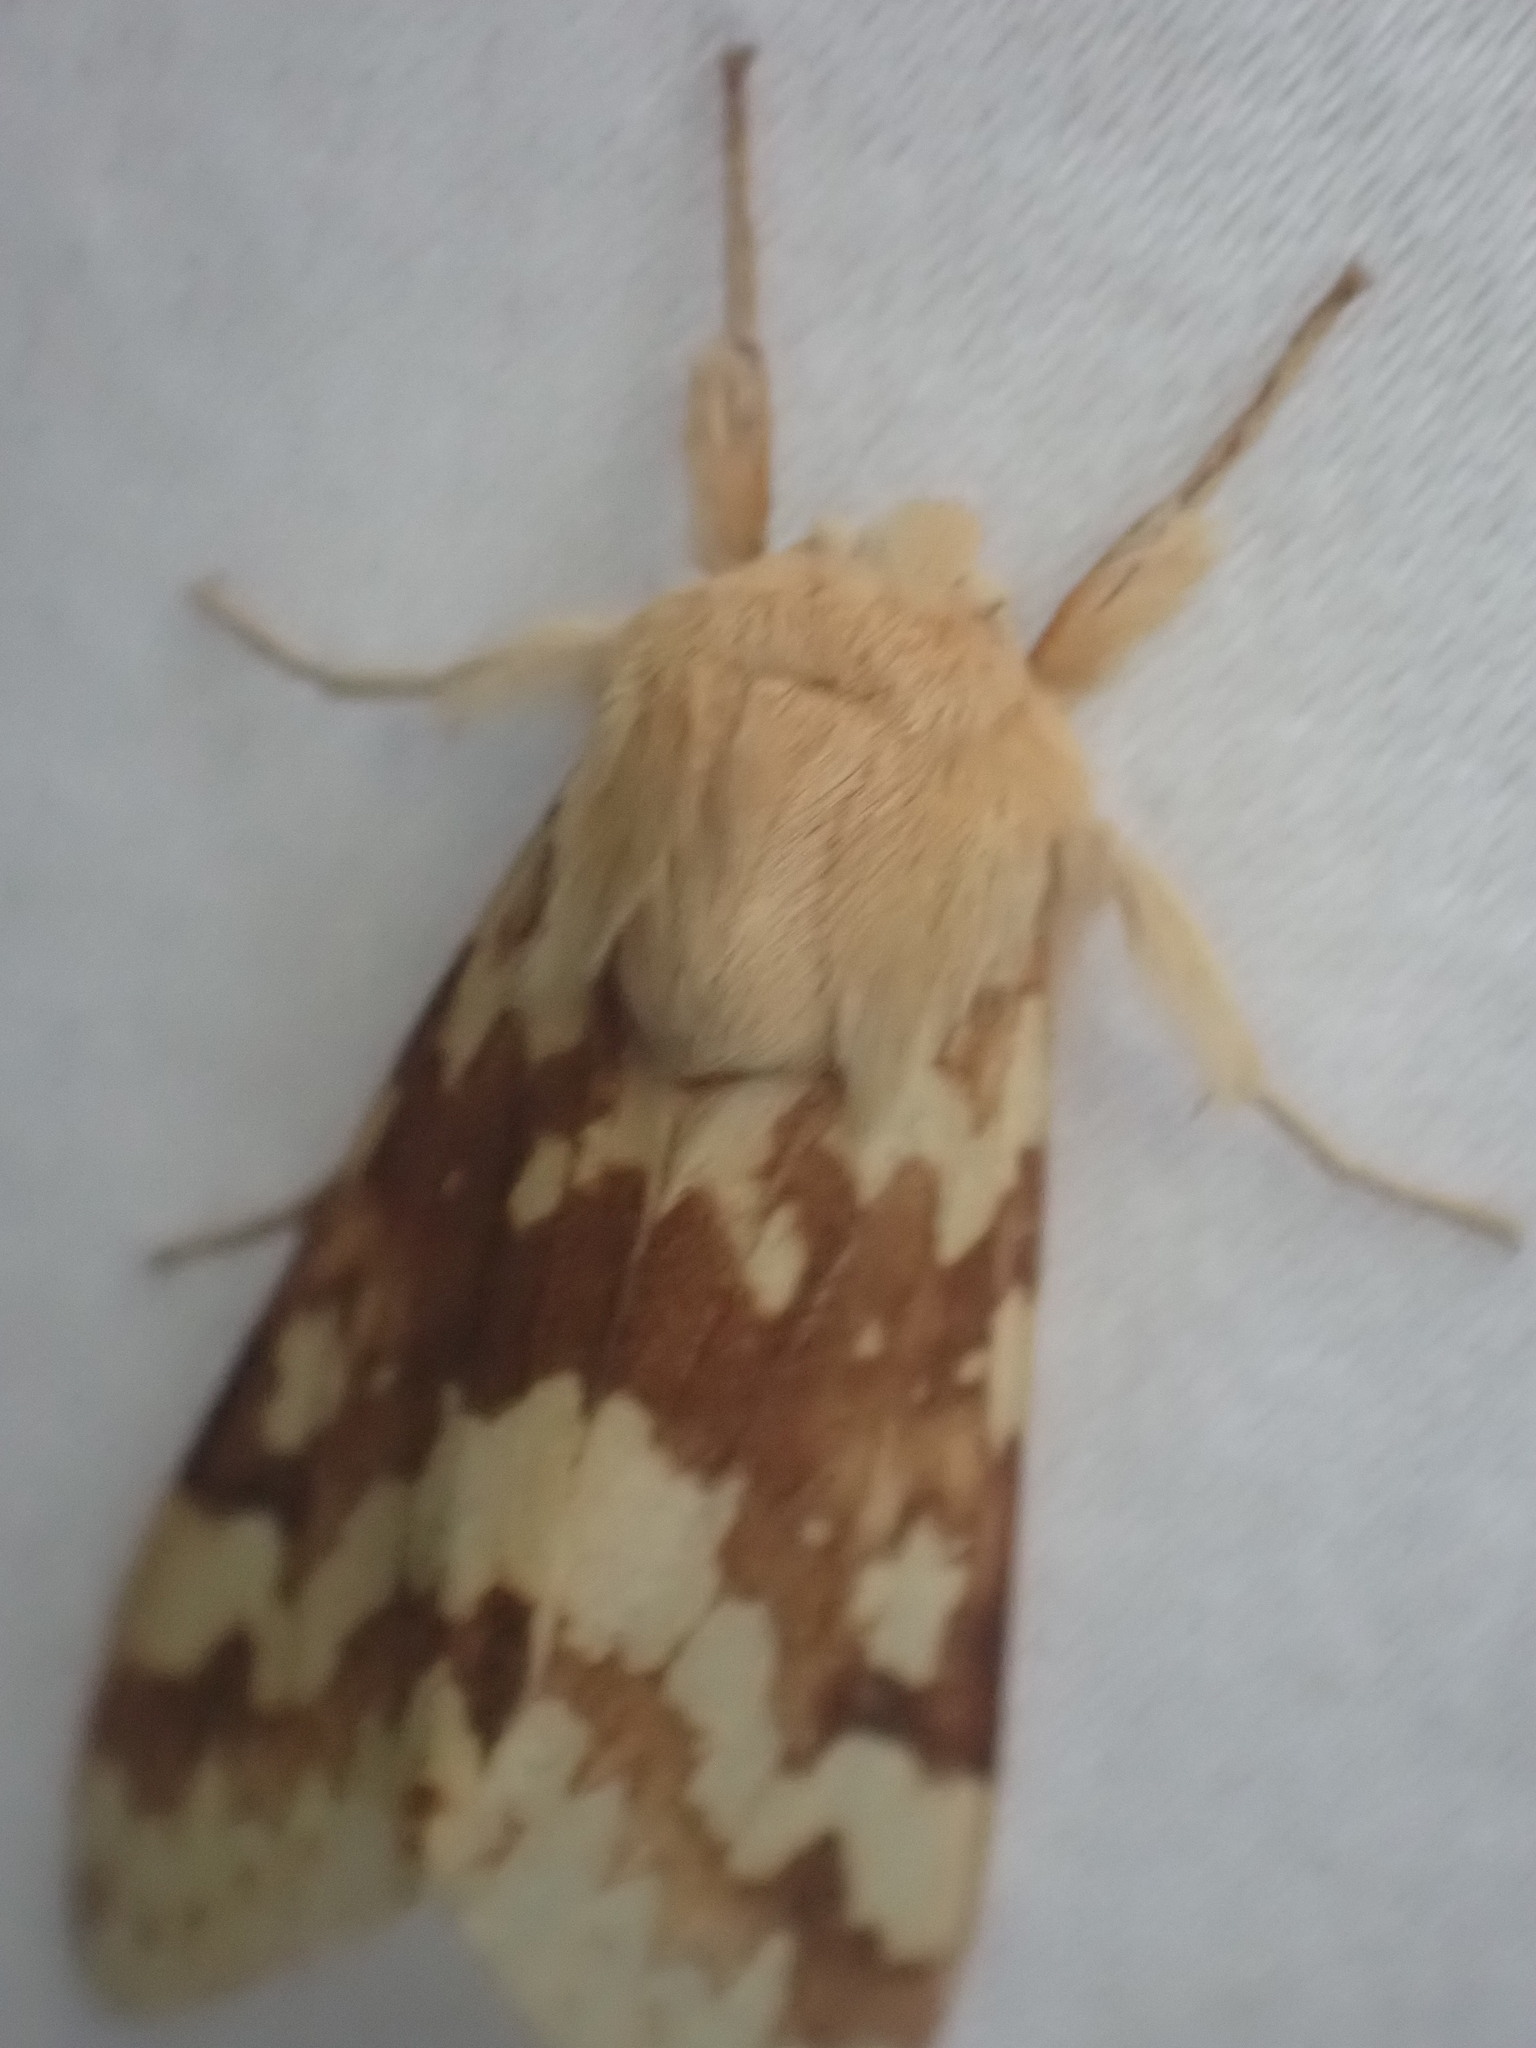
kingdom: Animalia
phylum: Arthropoda
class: Insecta
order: Lepidoptera
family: Erebidae
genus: Lophocampa
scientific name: Lophocampa maculata
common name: Spotted tussock moth
